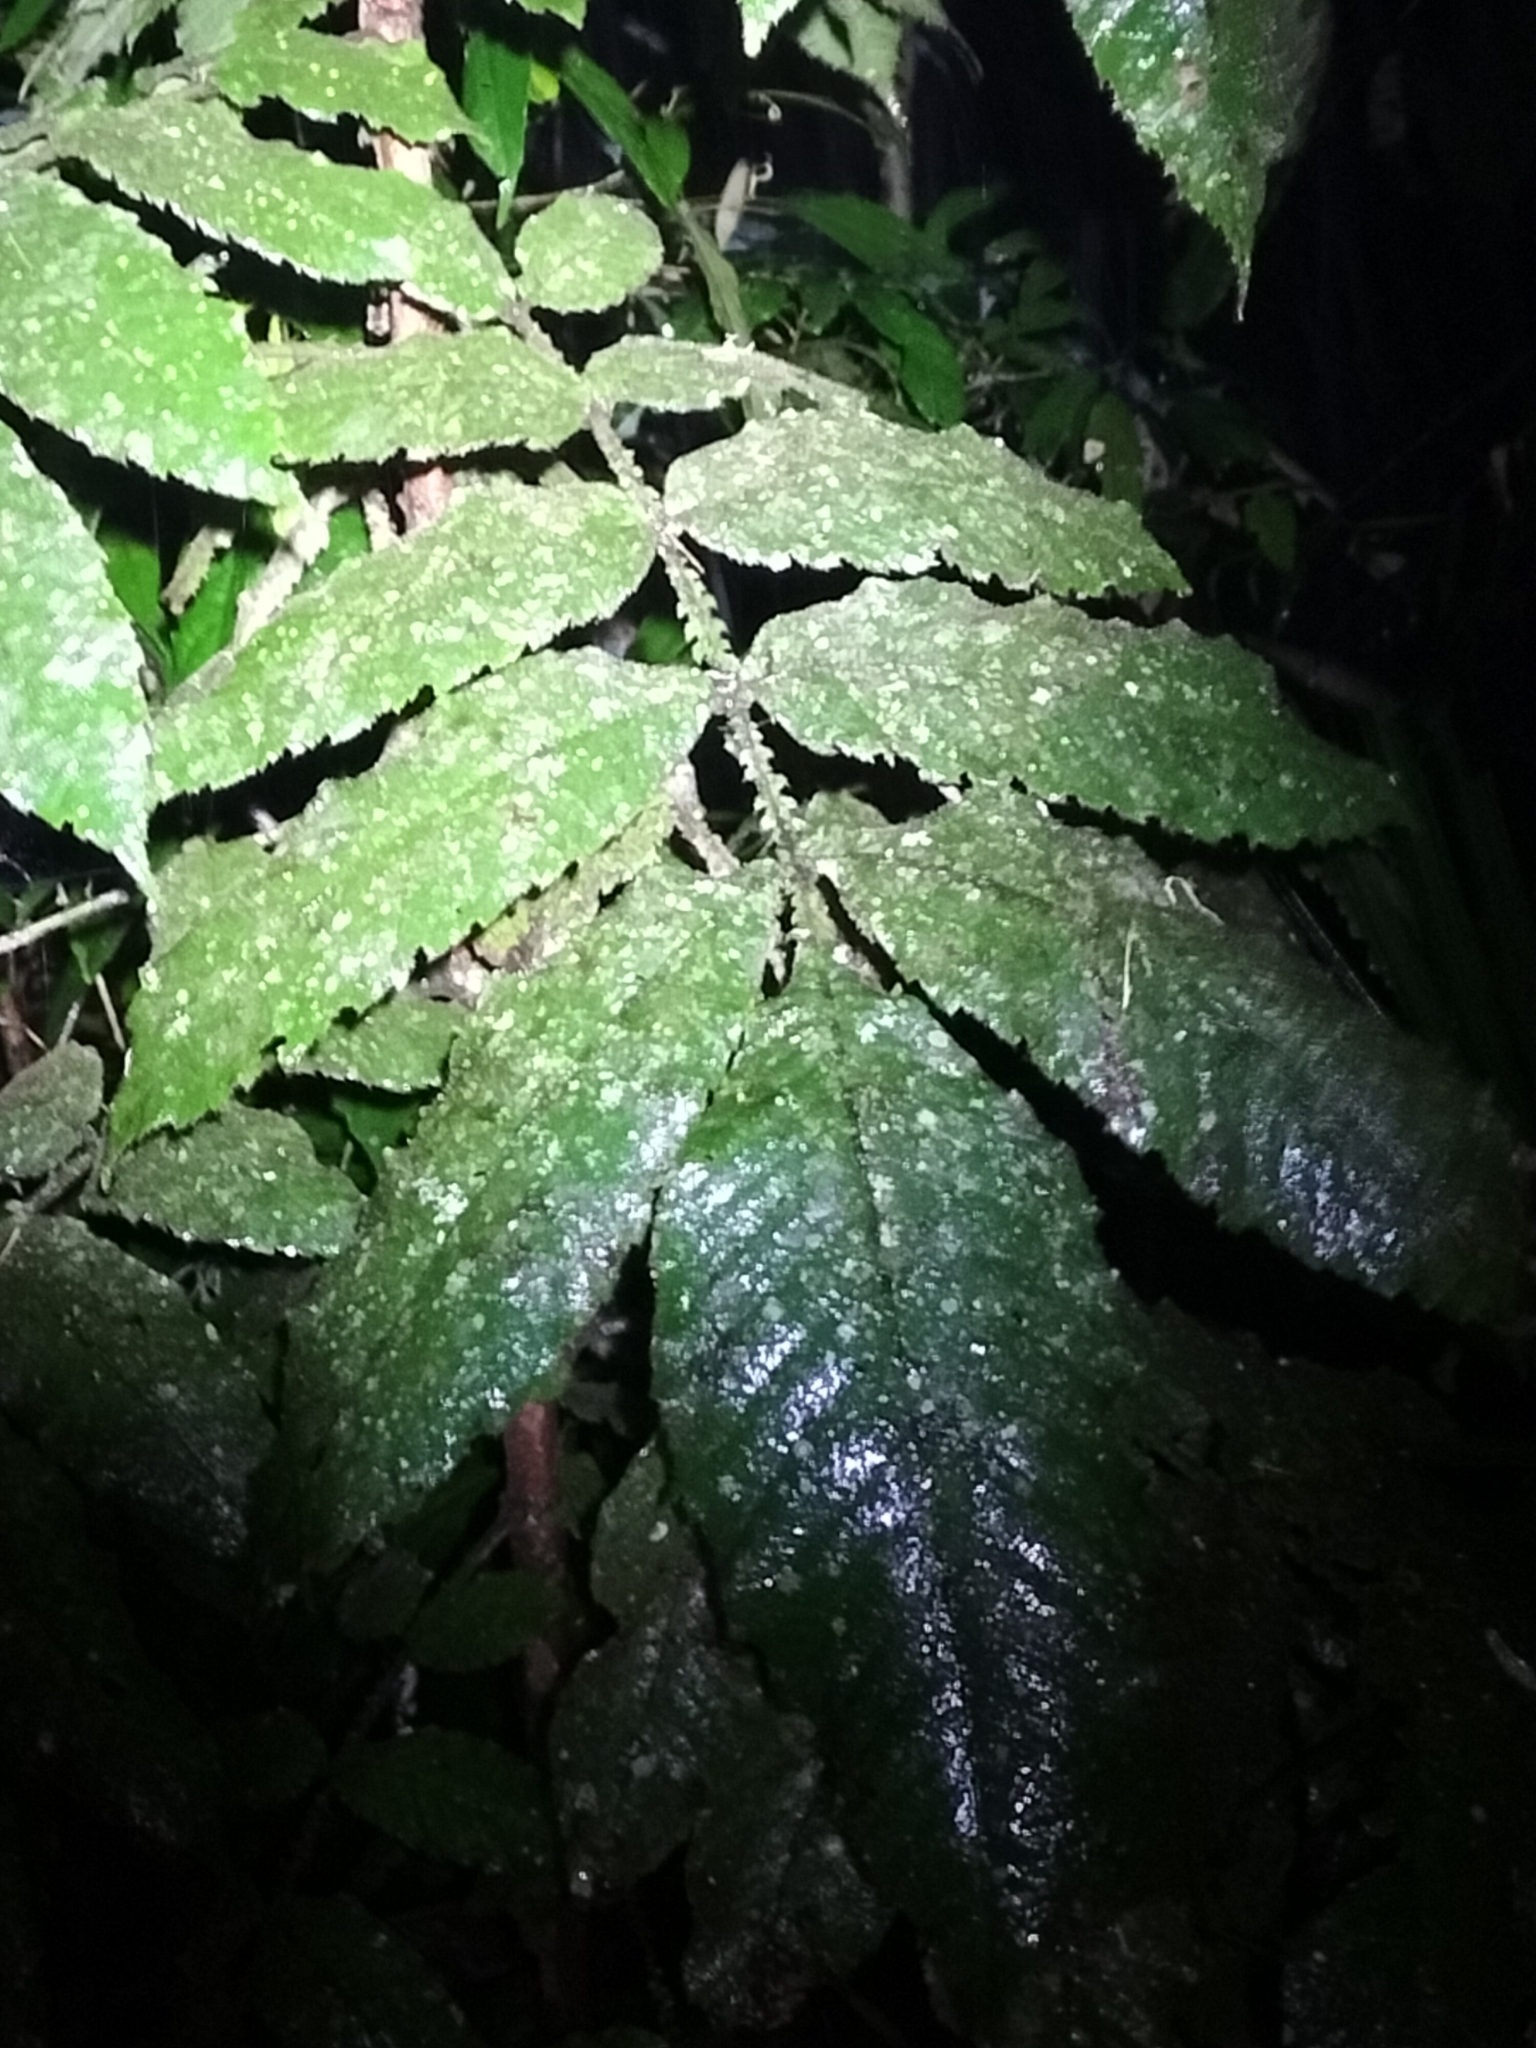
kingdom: Plantae
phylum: Tracheophyta
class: Magnoliopsida
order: Oxalidales
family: Cunoniaceae
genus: Davidsonia
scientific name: Davidsonia pruriens
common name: Do-rog
